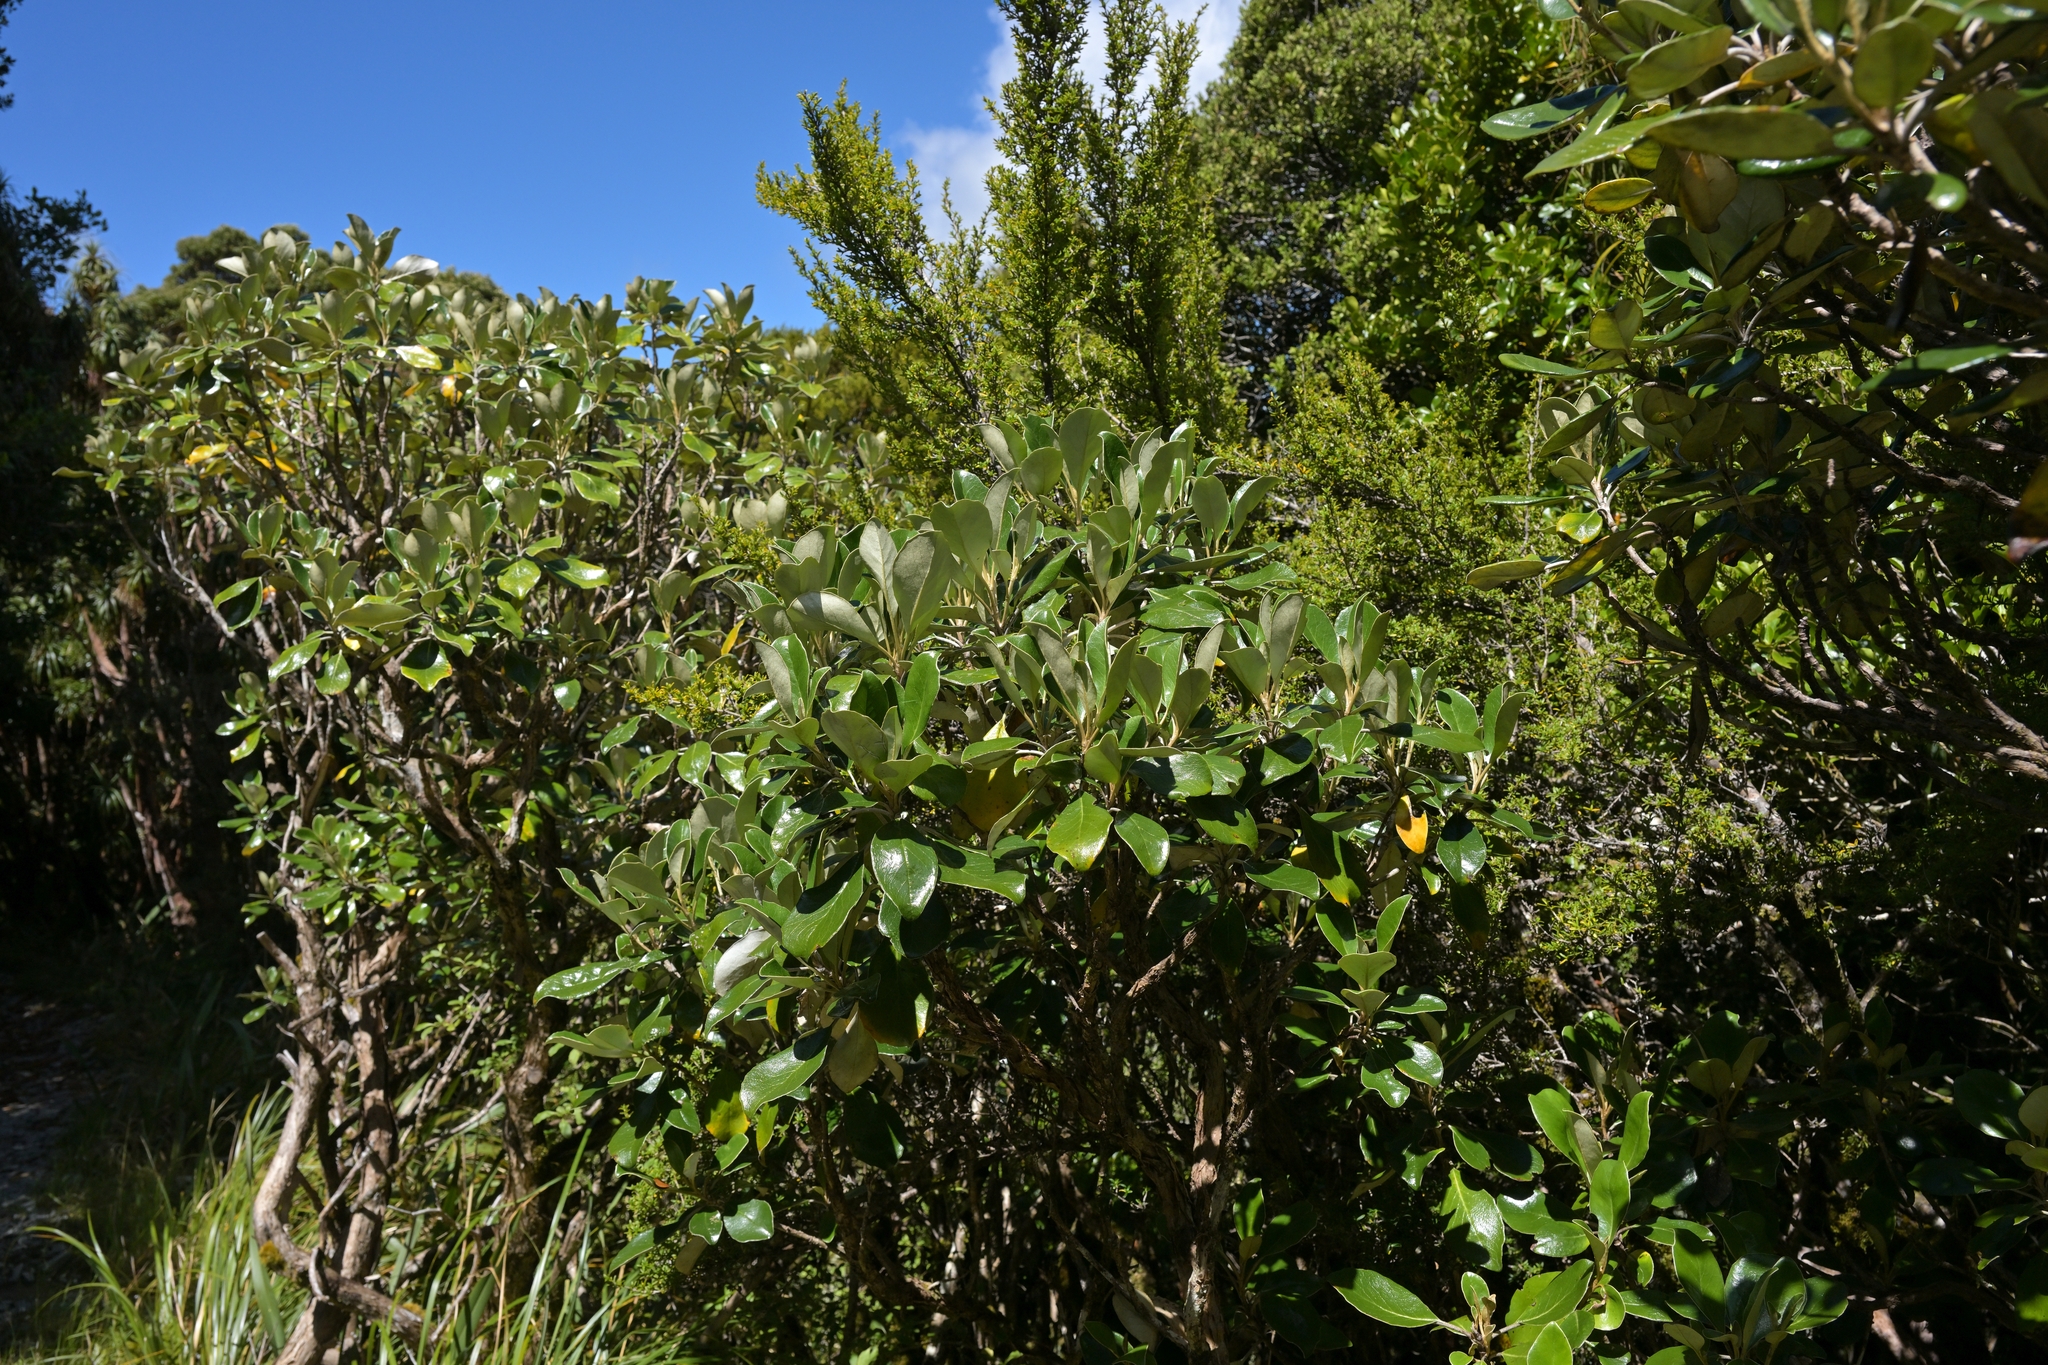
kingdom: Plantae
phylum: Tracheophyta
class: Magnoliopsida
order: Asterales
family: Asteraceae
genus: Brachyglottis
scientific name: Brachyglottis buchananii
